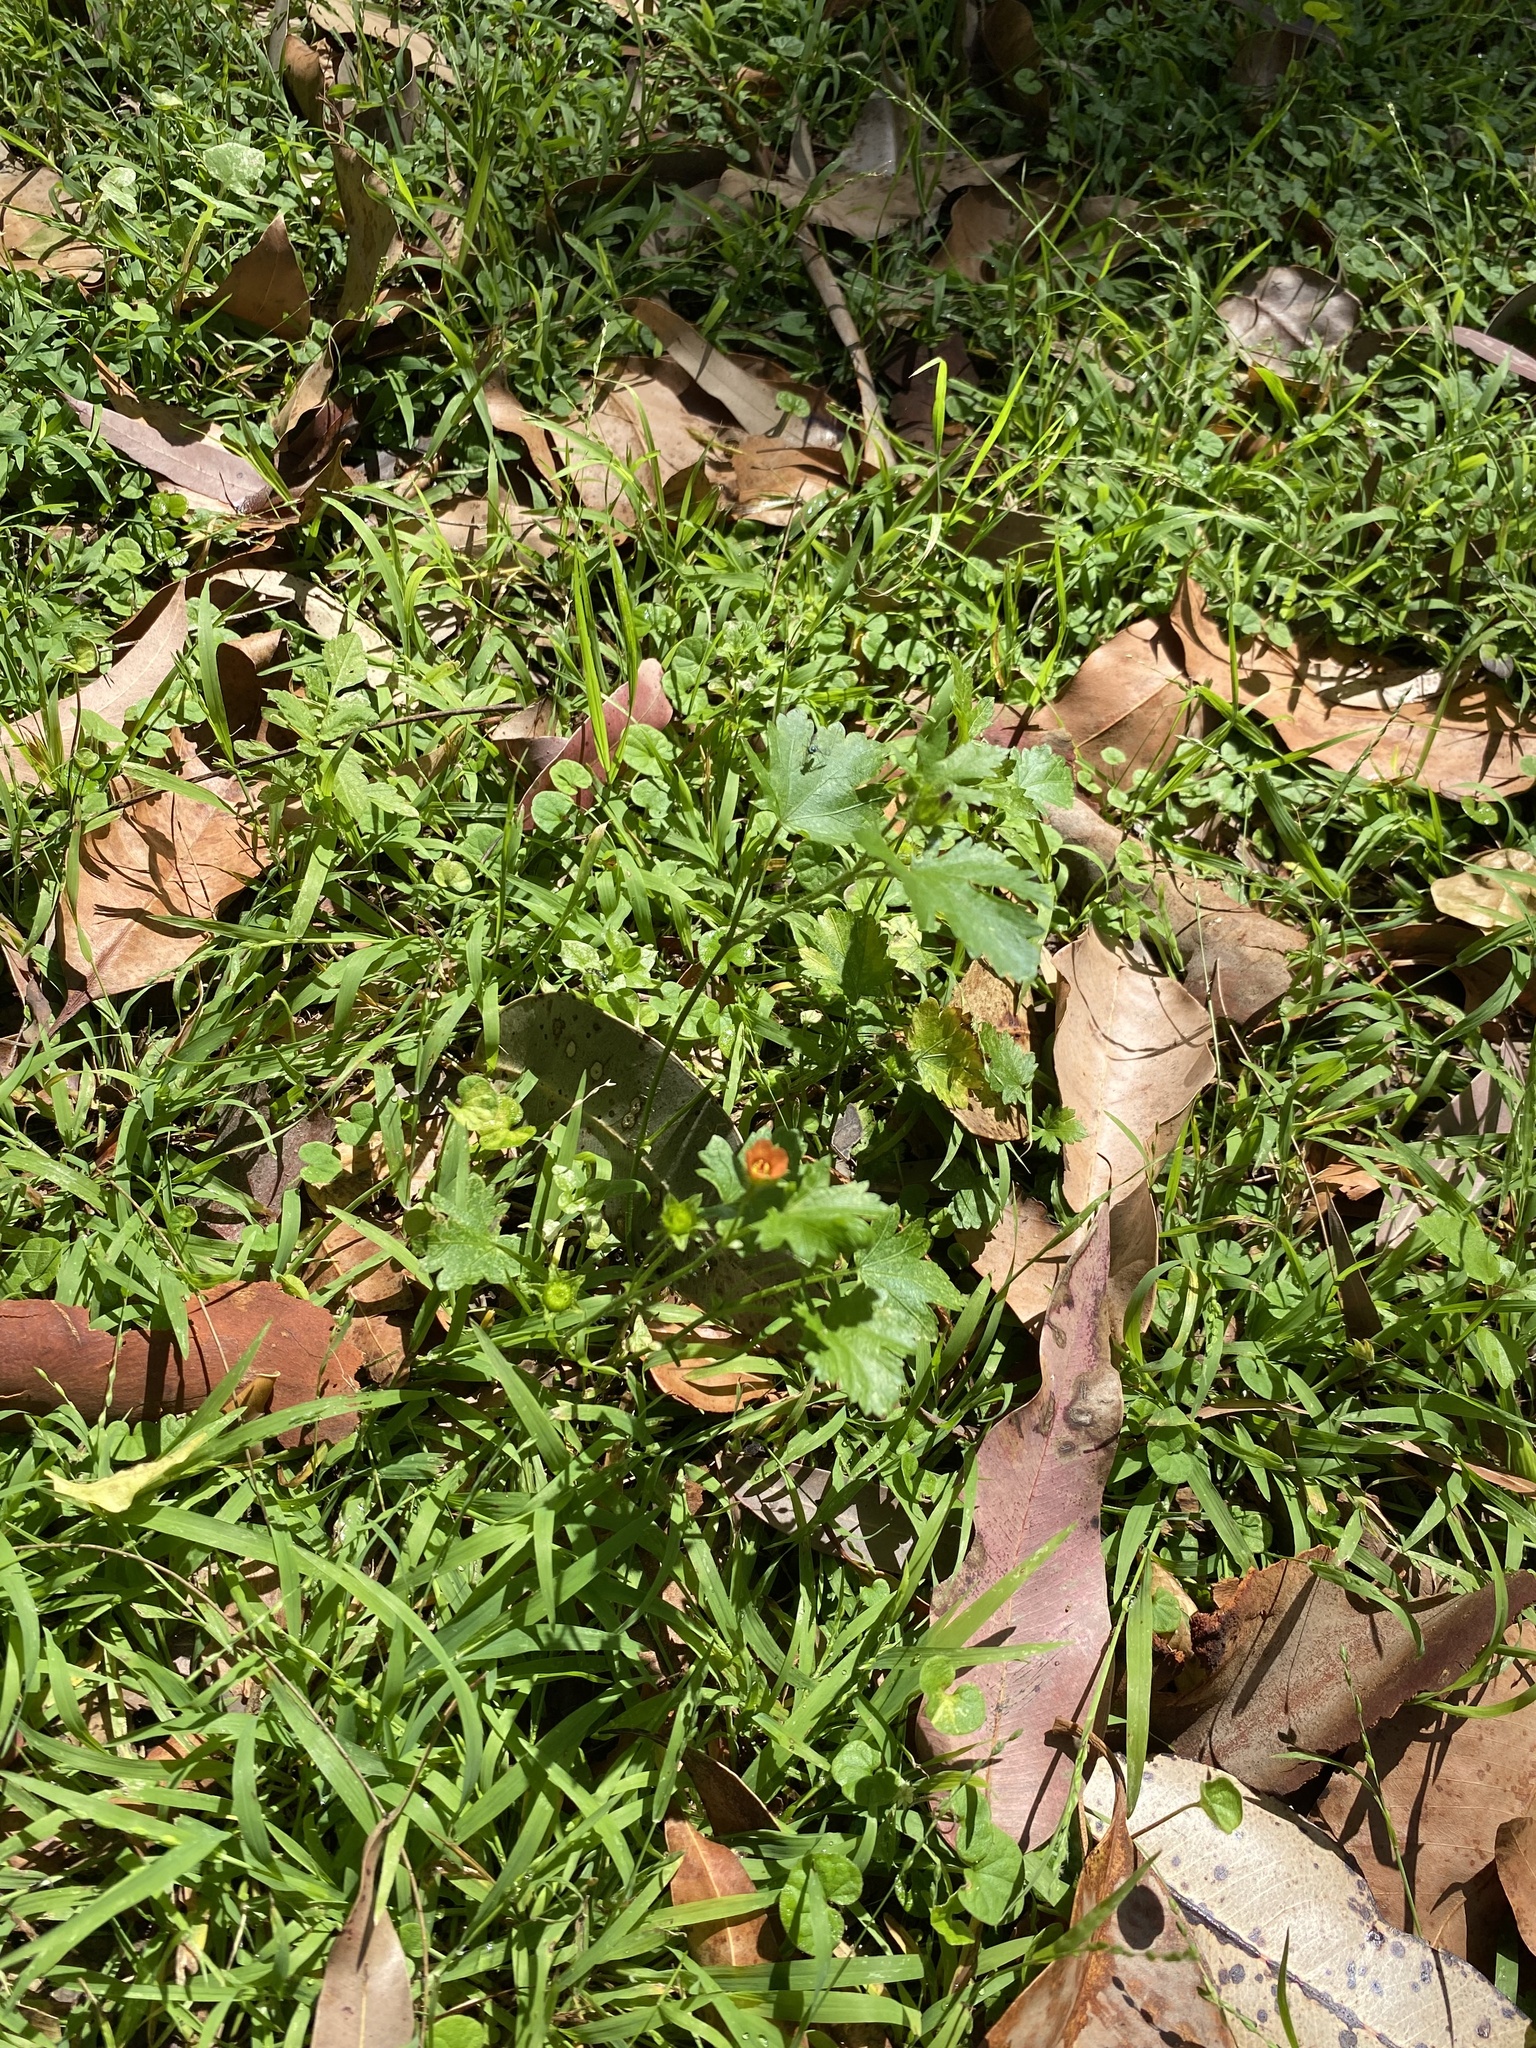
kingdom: Plantae
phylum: Tracheophyta
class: Magnoliopsida
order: Malvales
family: Malvaceae
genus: Modiola
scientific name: Modiola caroliniana
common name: Carolina bristlemallow
